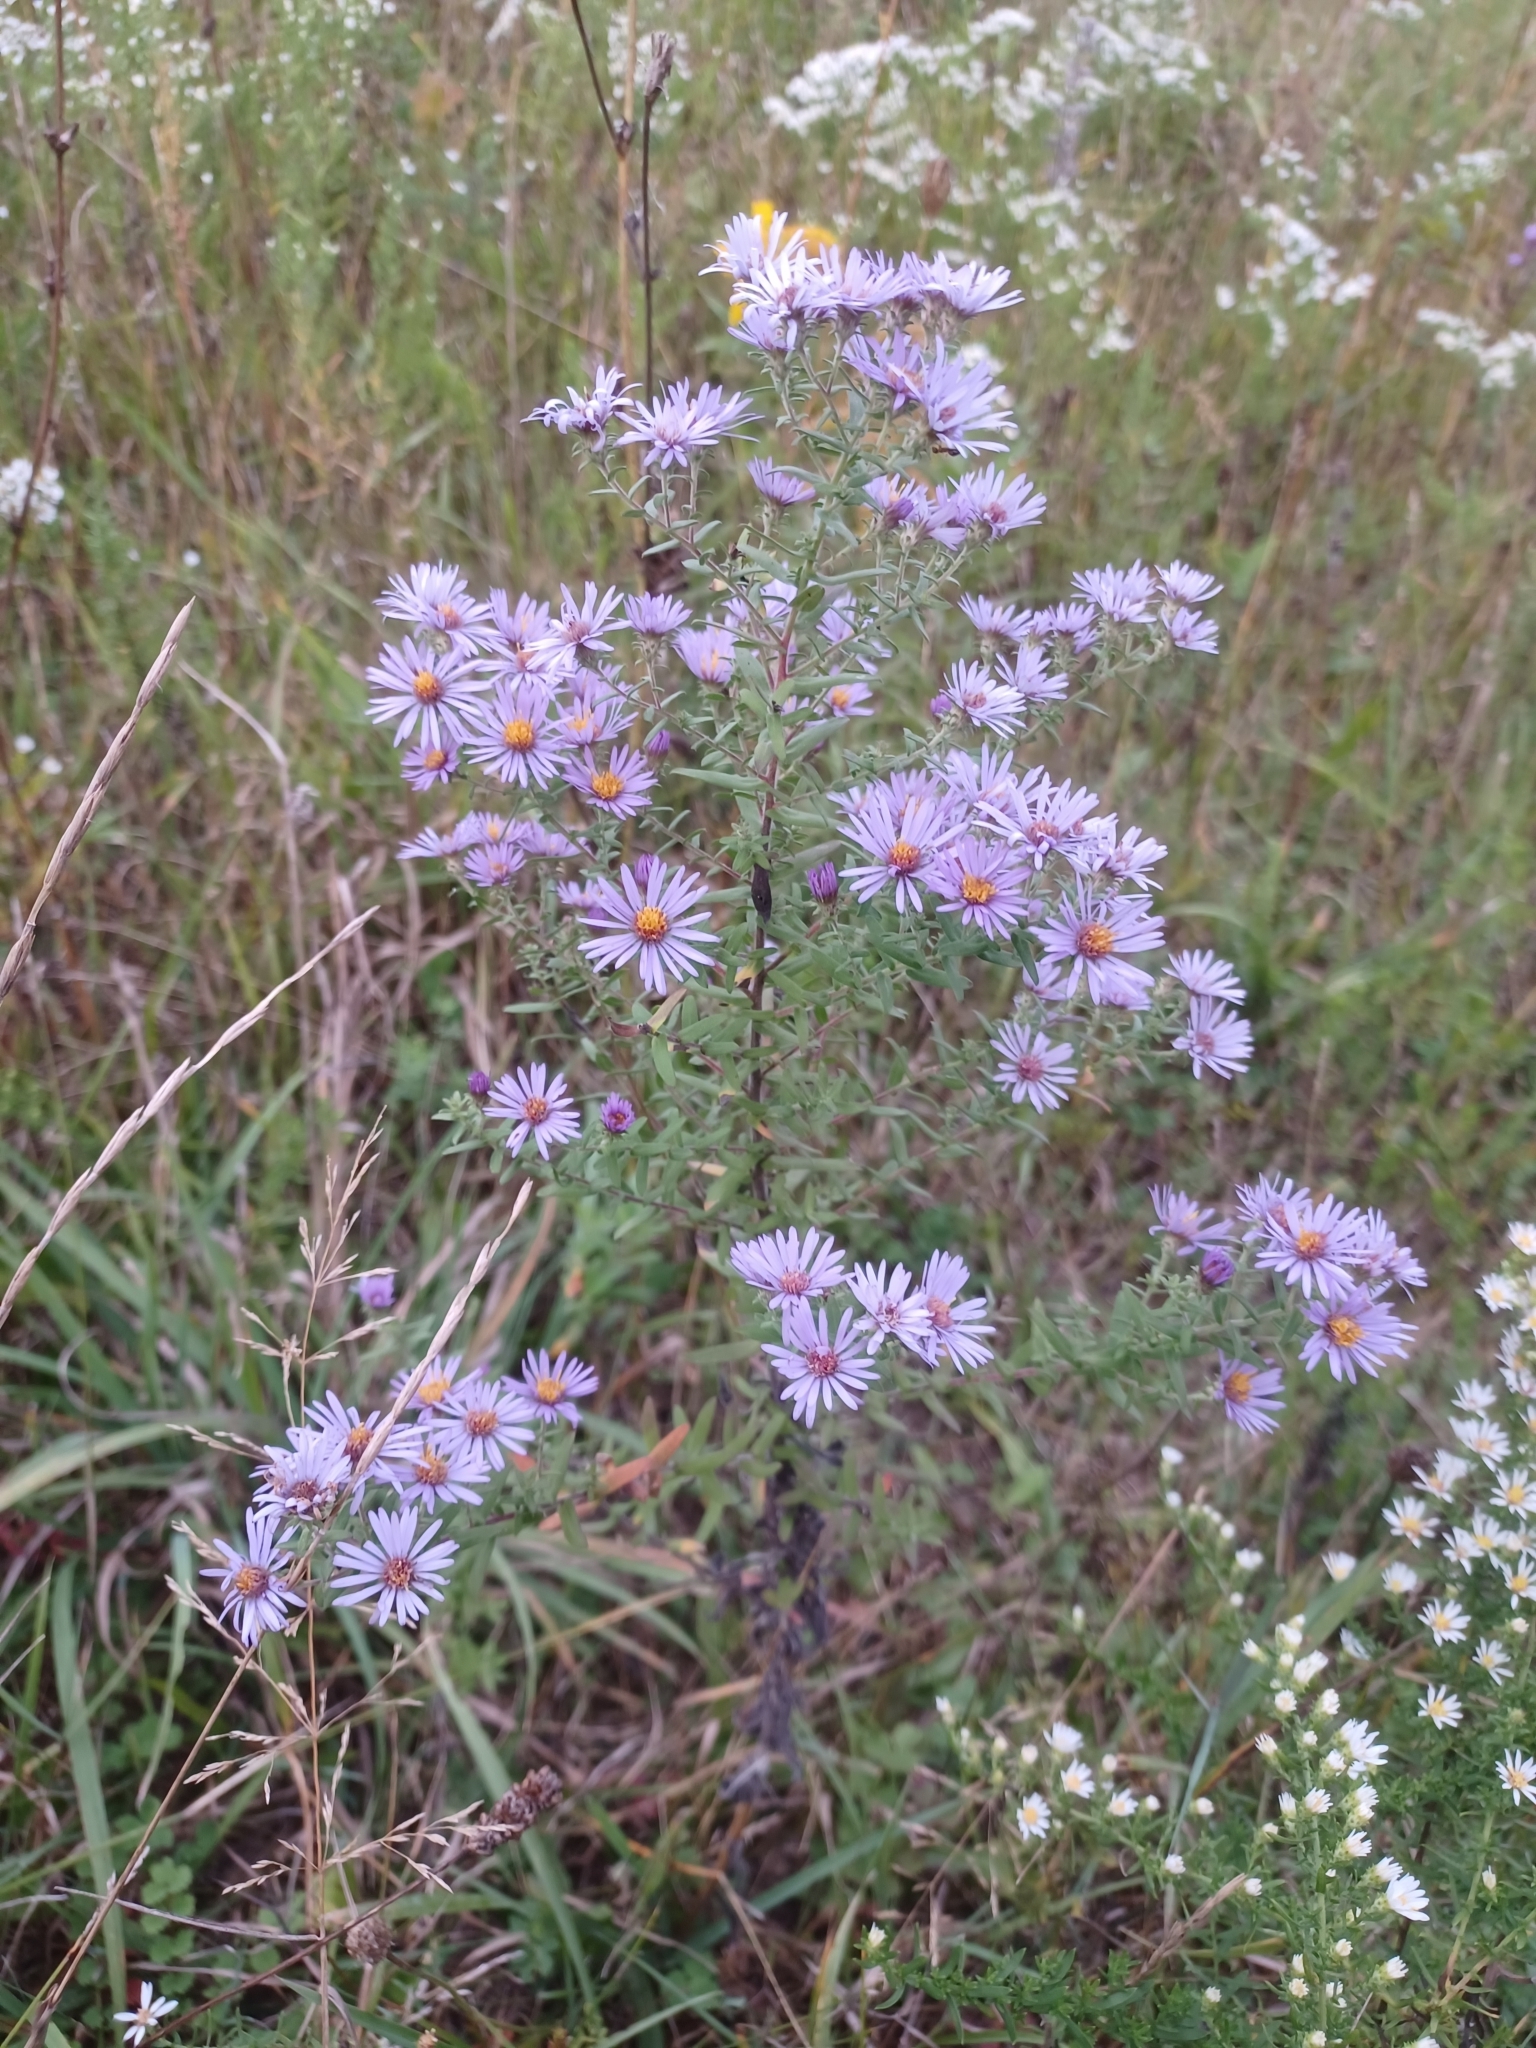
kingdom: Plantae
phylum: Tracheophyta
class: Magnoliopsida
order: Asterales
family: Asteraceae
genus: Symphyotrichum
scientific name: Symphyotrichum amethystinum
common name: Amethyst aster
